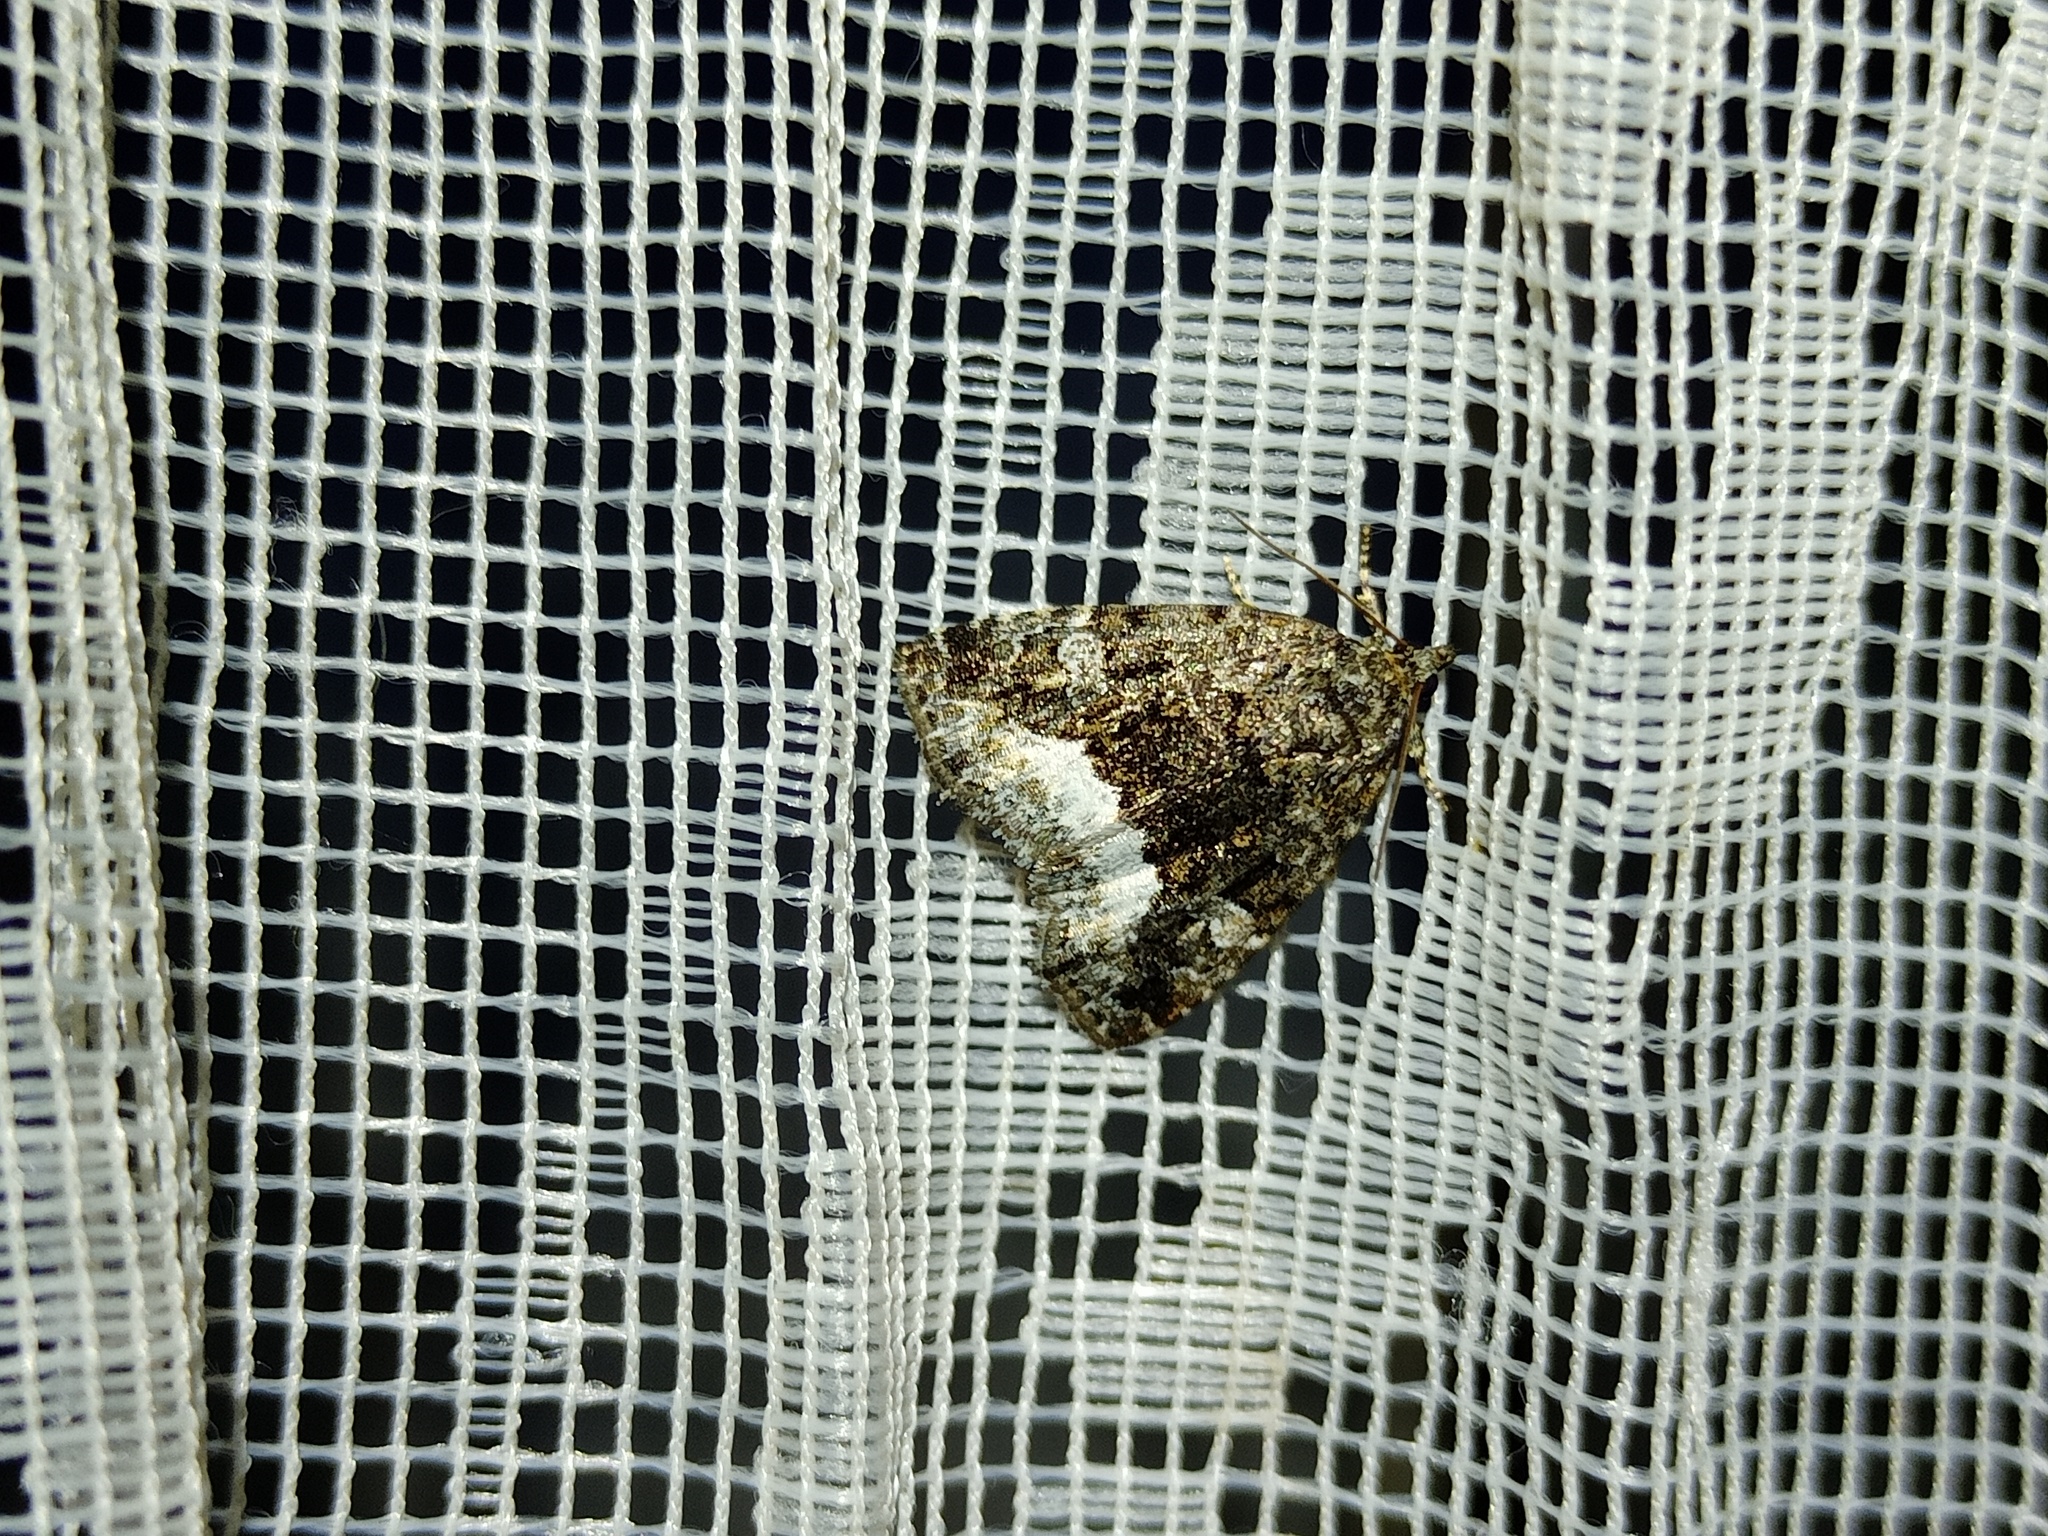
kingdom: Animalia
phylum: Arthropoda
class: Insecta
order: Lepidoptera
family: Noctuidae
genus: Deltote
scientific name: Deltote pygarga
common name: Marbled white spot
